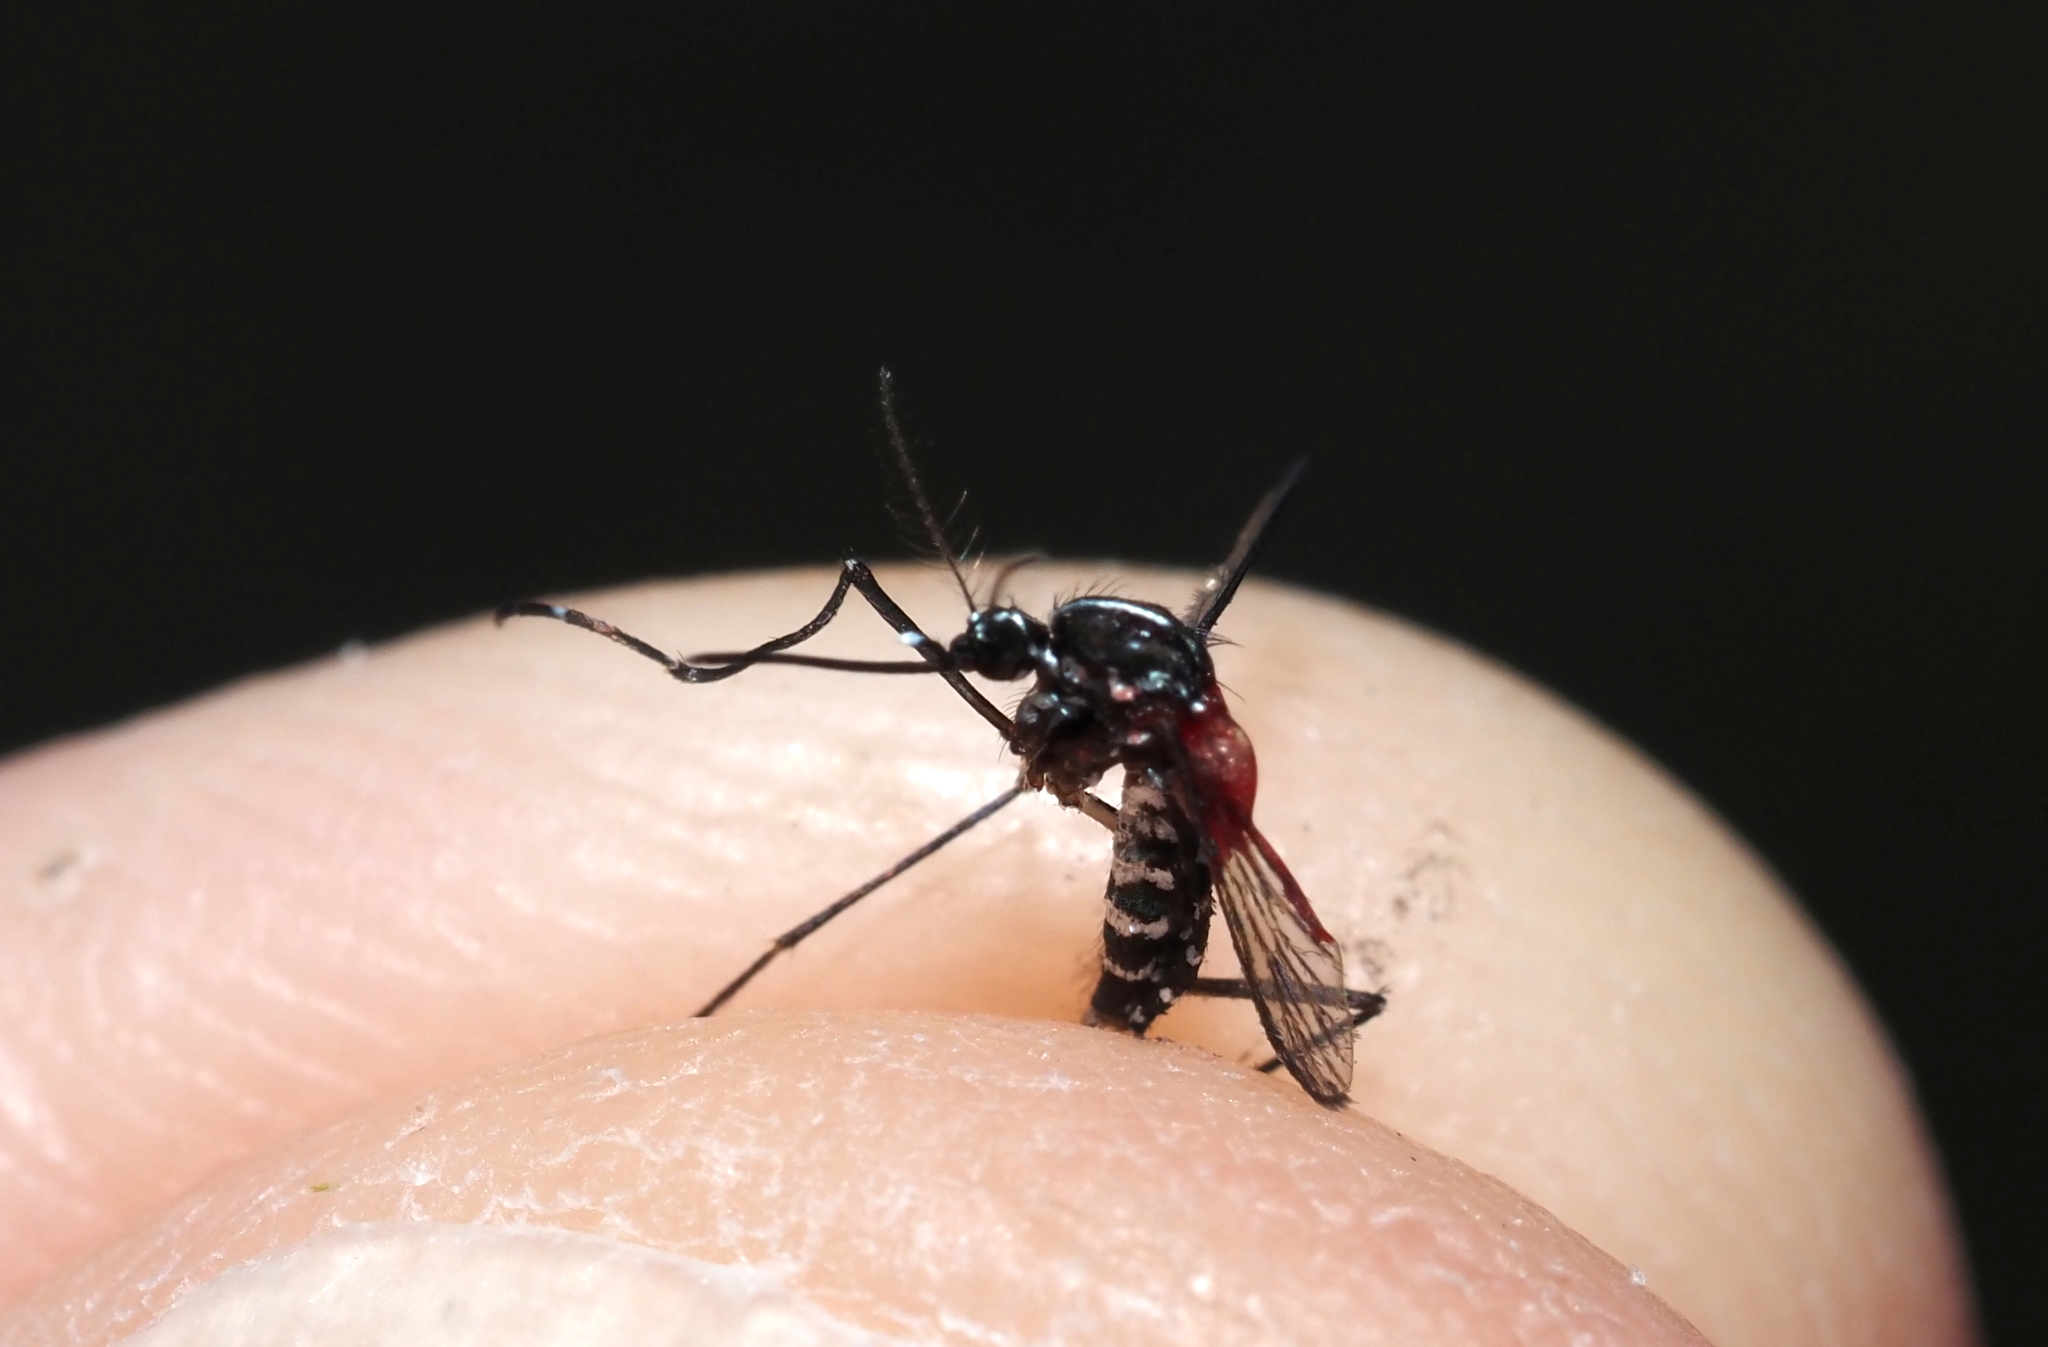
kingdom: Animalia
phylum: Arthropoda
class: Insecta
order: Diptera
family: Culicidae
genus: Aedes
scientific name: Aedes albopictus
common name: Tiger mosquito
